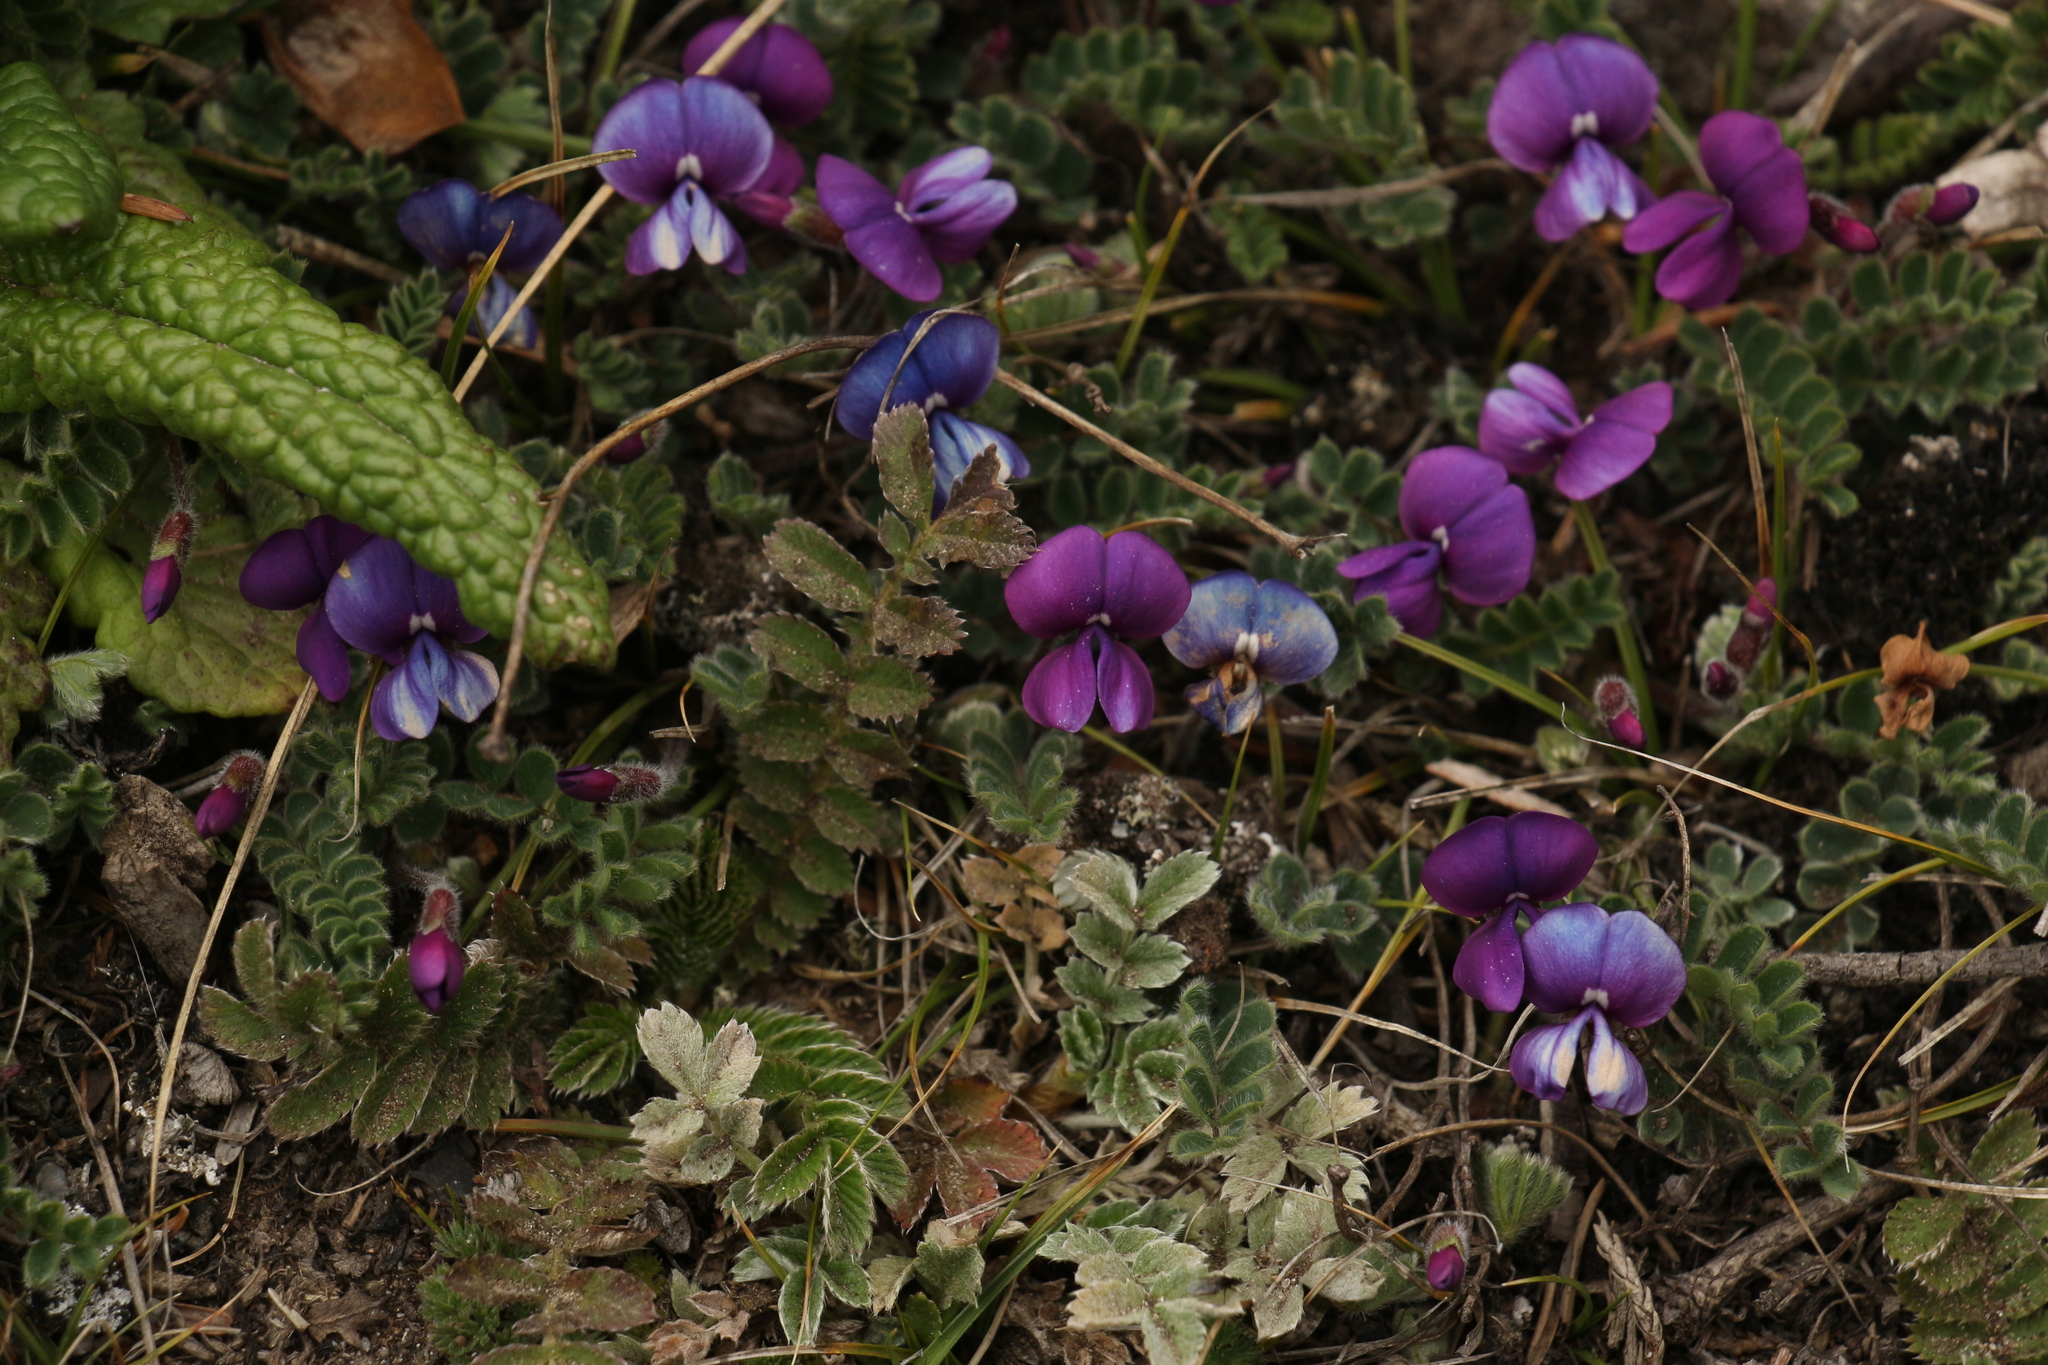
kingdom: Plantae
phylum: Tracheophyta
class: Magnoliopsida
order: Fabales
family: Fabaceae
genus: Tibetia
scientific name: Tibetia himalaica
